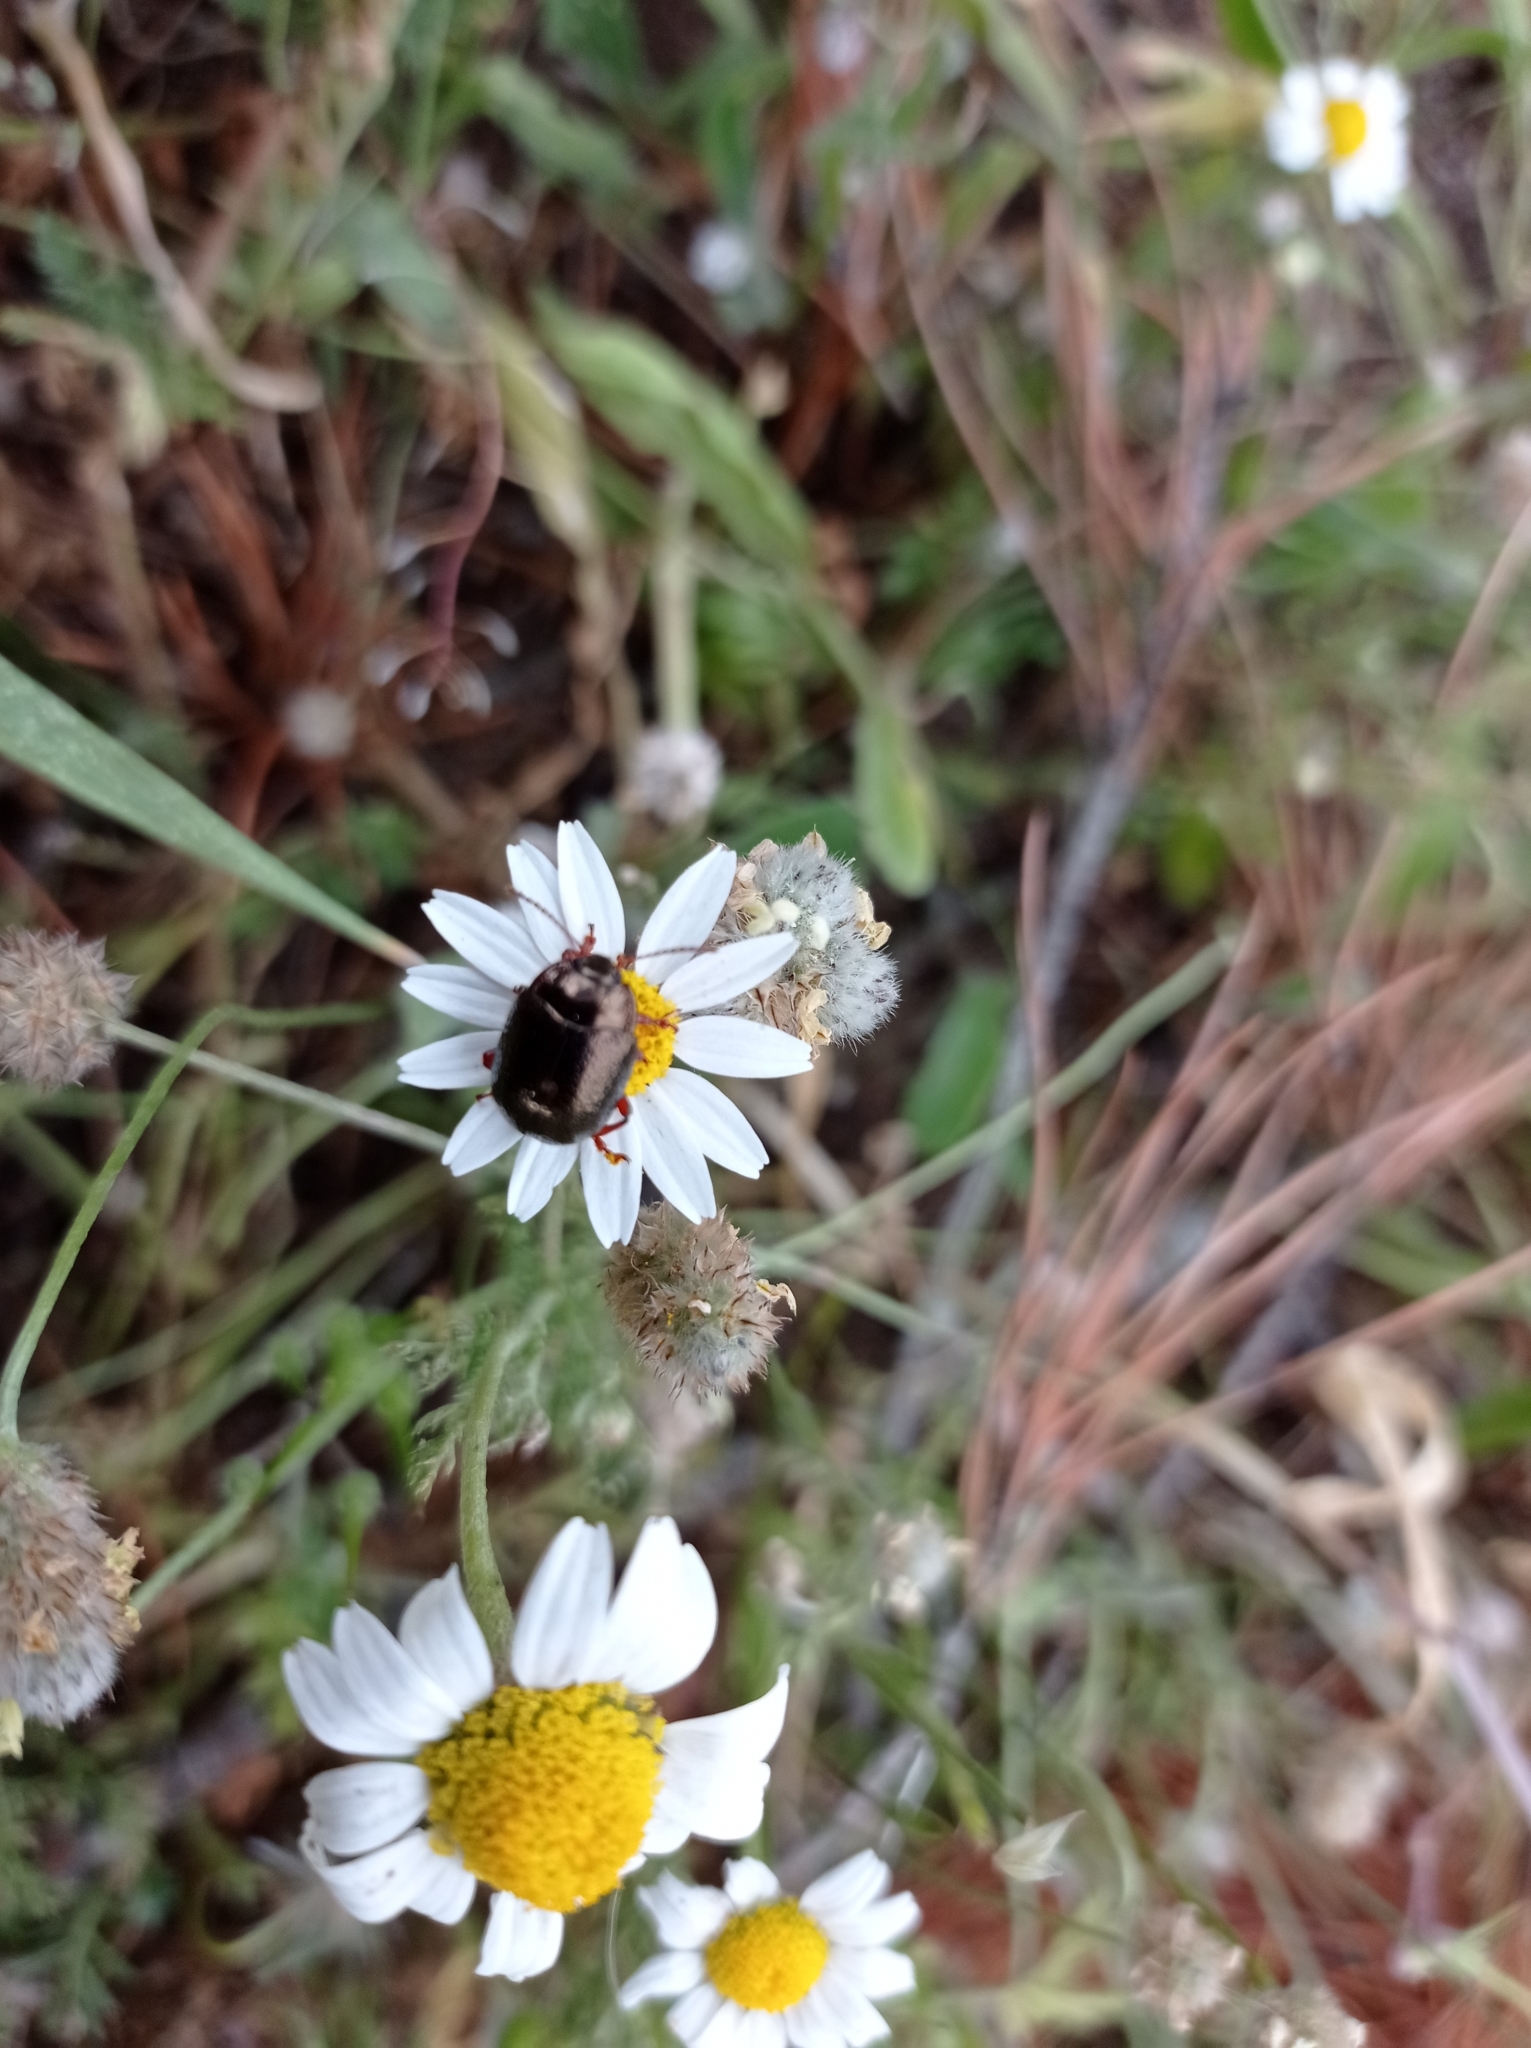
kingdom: Animalia
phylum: Arthropoda
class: Insecta
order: Coleoptera
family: Chrysomelidae
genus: Chrysolina
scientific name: Chrysolina bankii
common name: Leaf beetle
